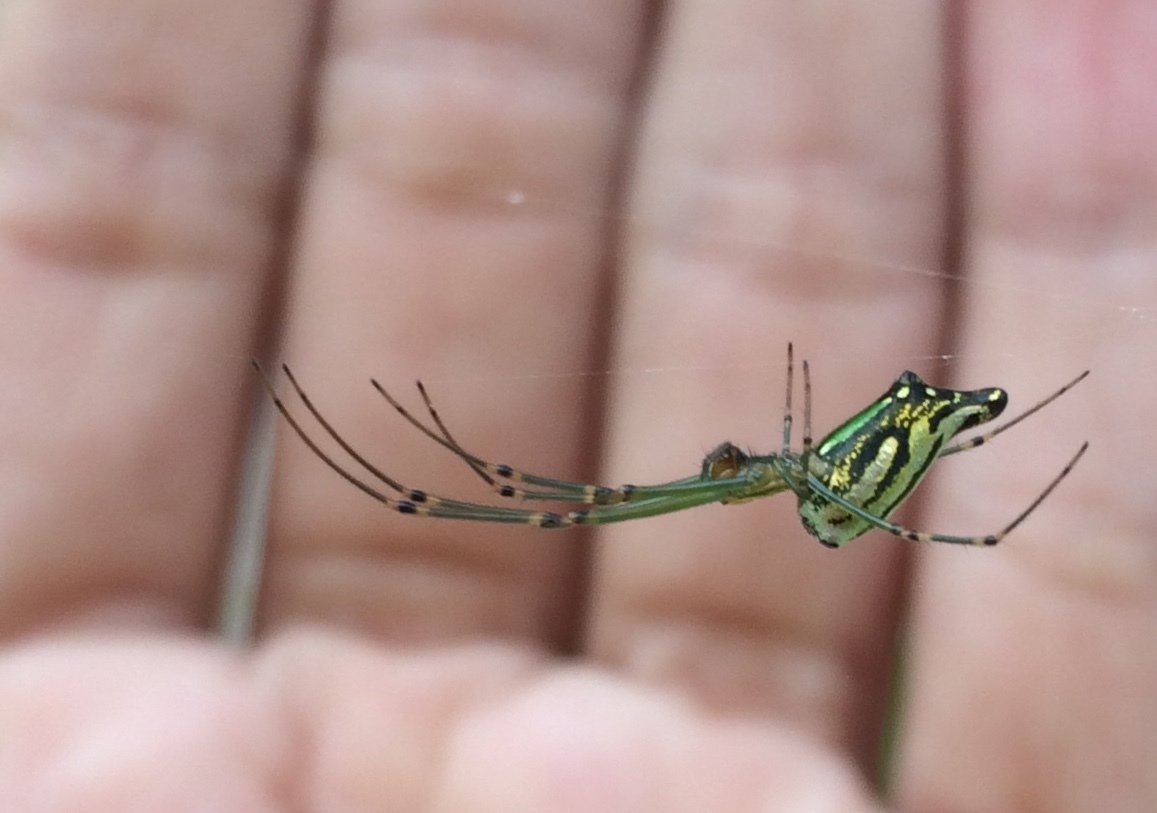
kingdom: Animalia
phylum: Arthropoda
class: Arachnida
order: Araneae
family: Tetragnathidae
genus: Leucauge
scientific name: Leucauge decorata
